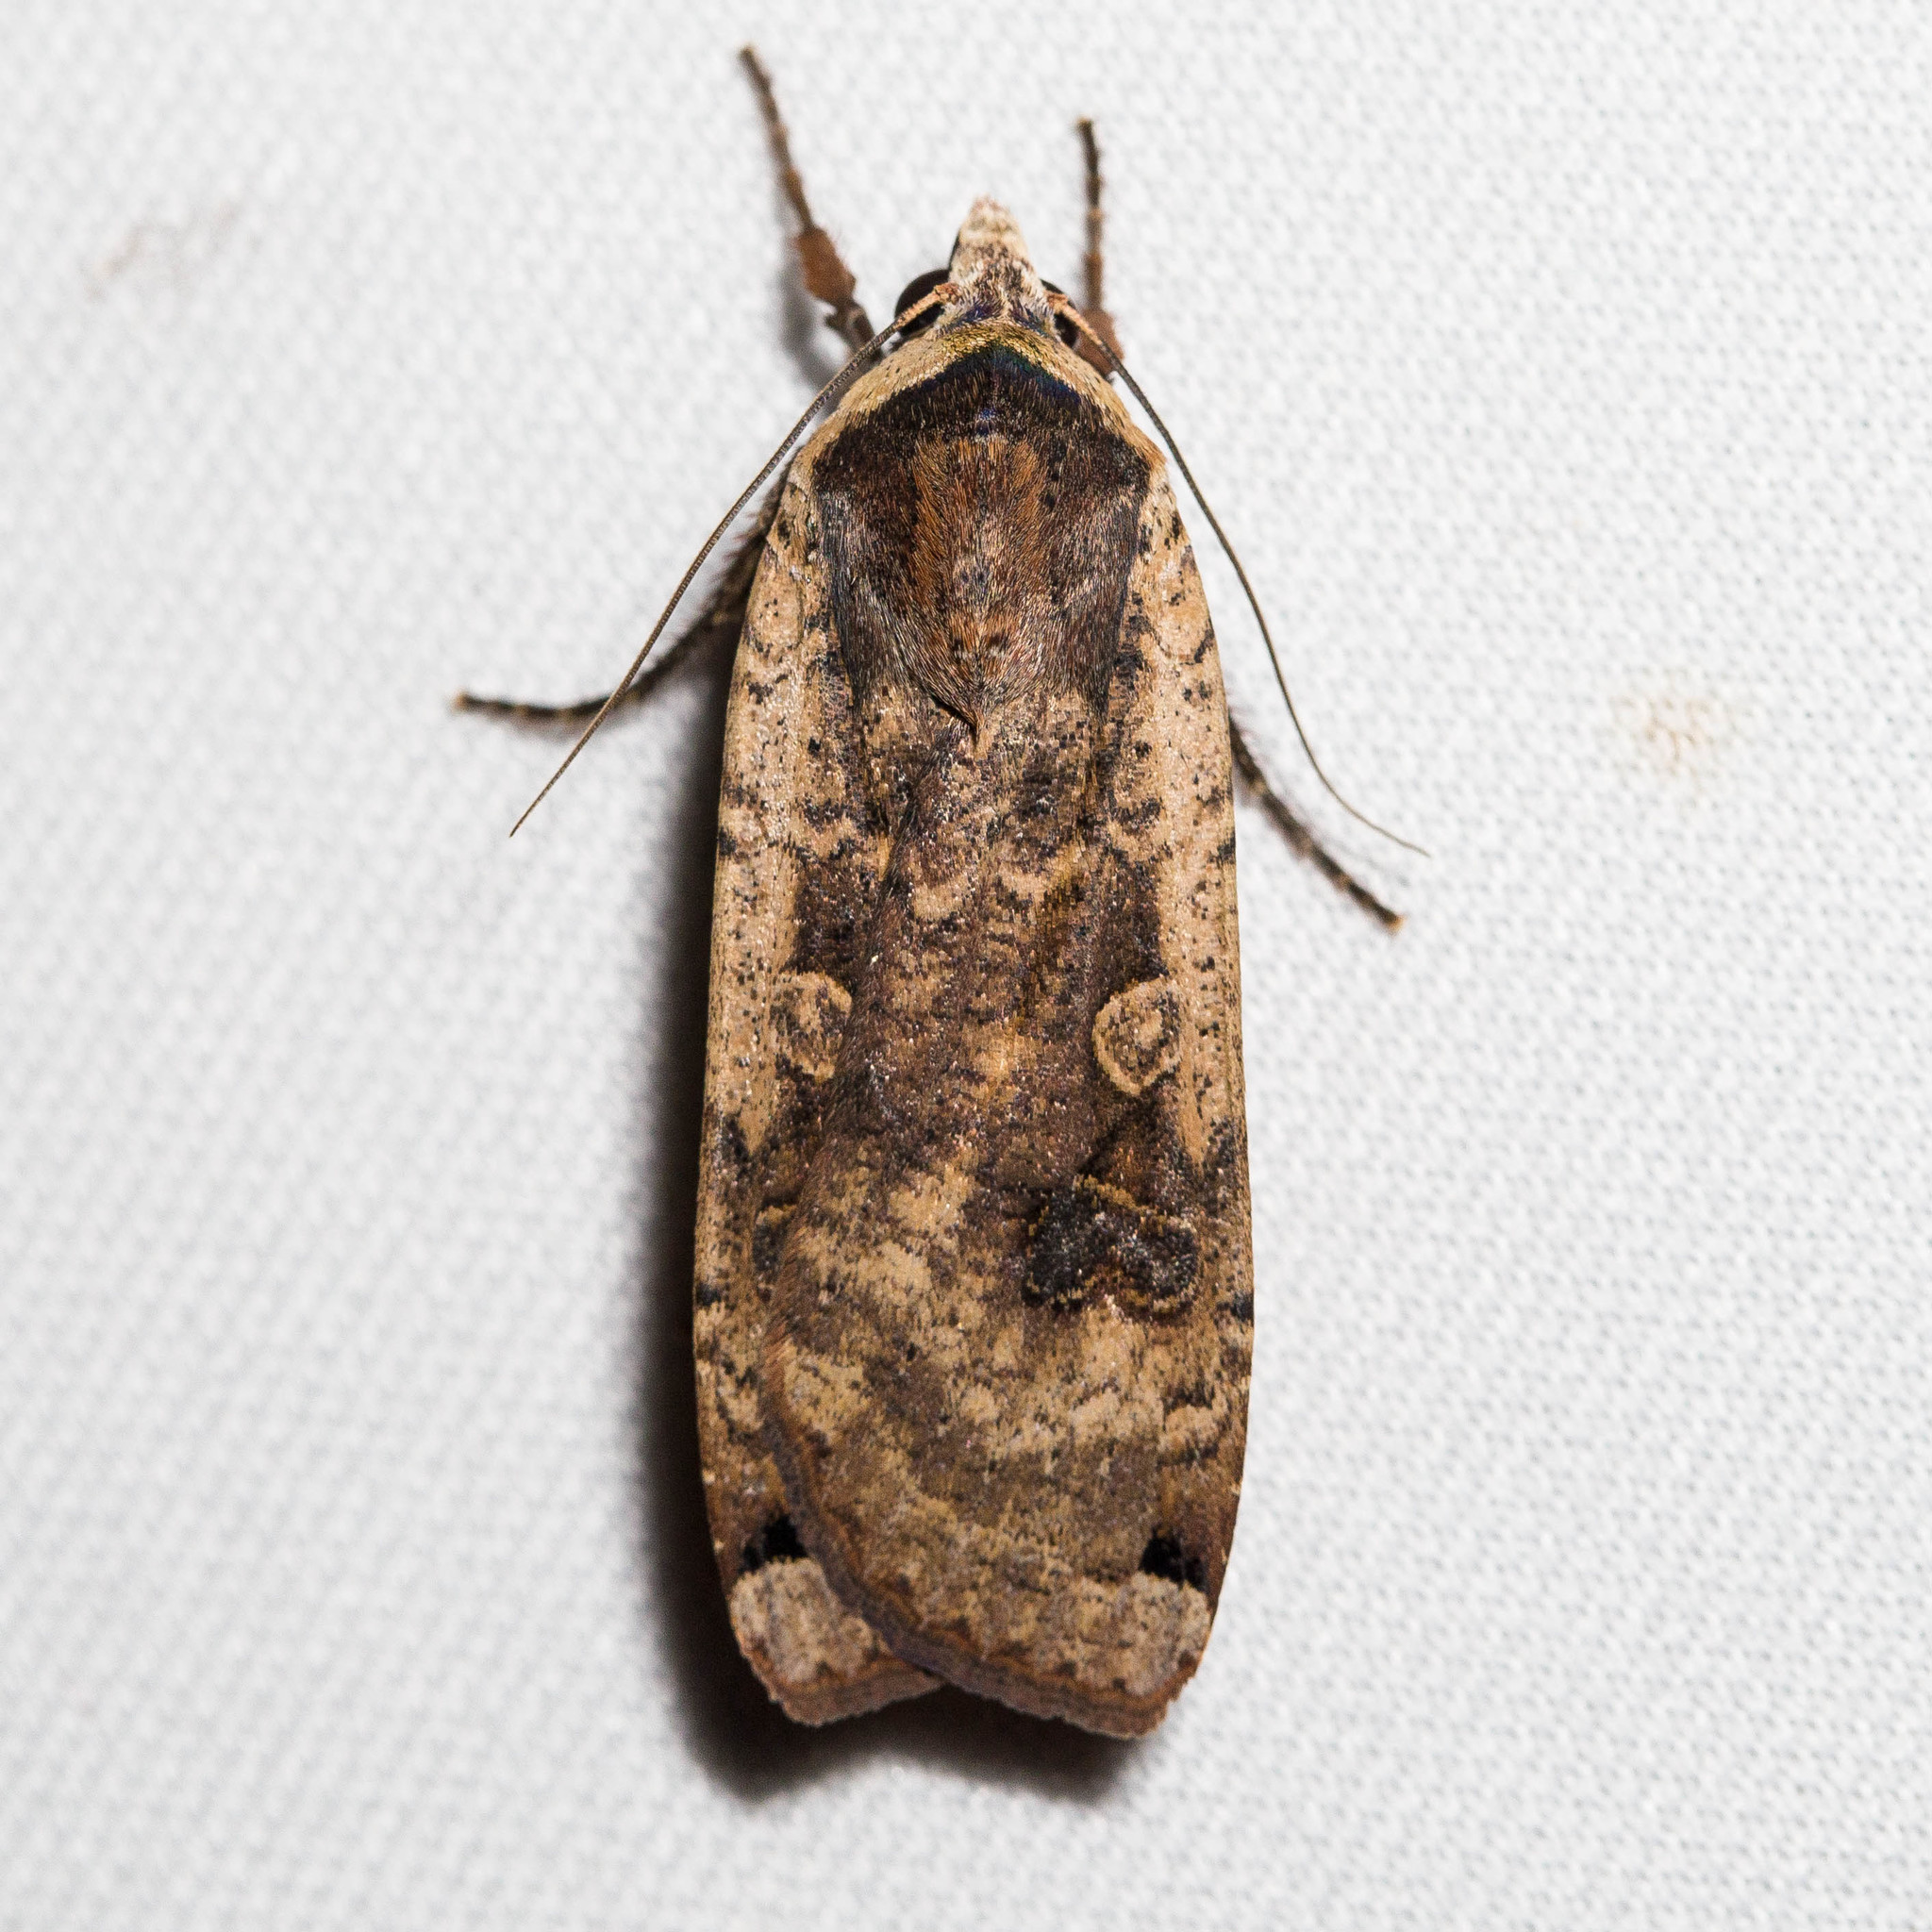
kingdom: Animalia
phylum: Arthropoda
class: Insecta
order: Lepidoptera
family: Noctuidae
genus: Noctua
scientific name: Noctua pronuba
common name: Large yellow underwing
